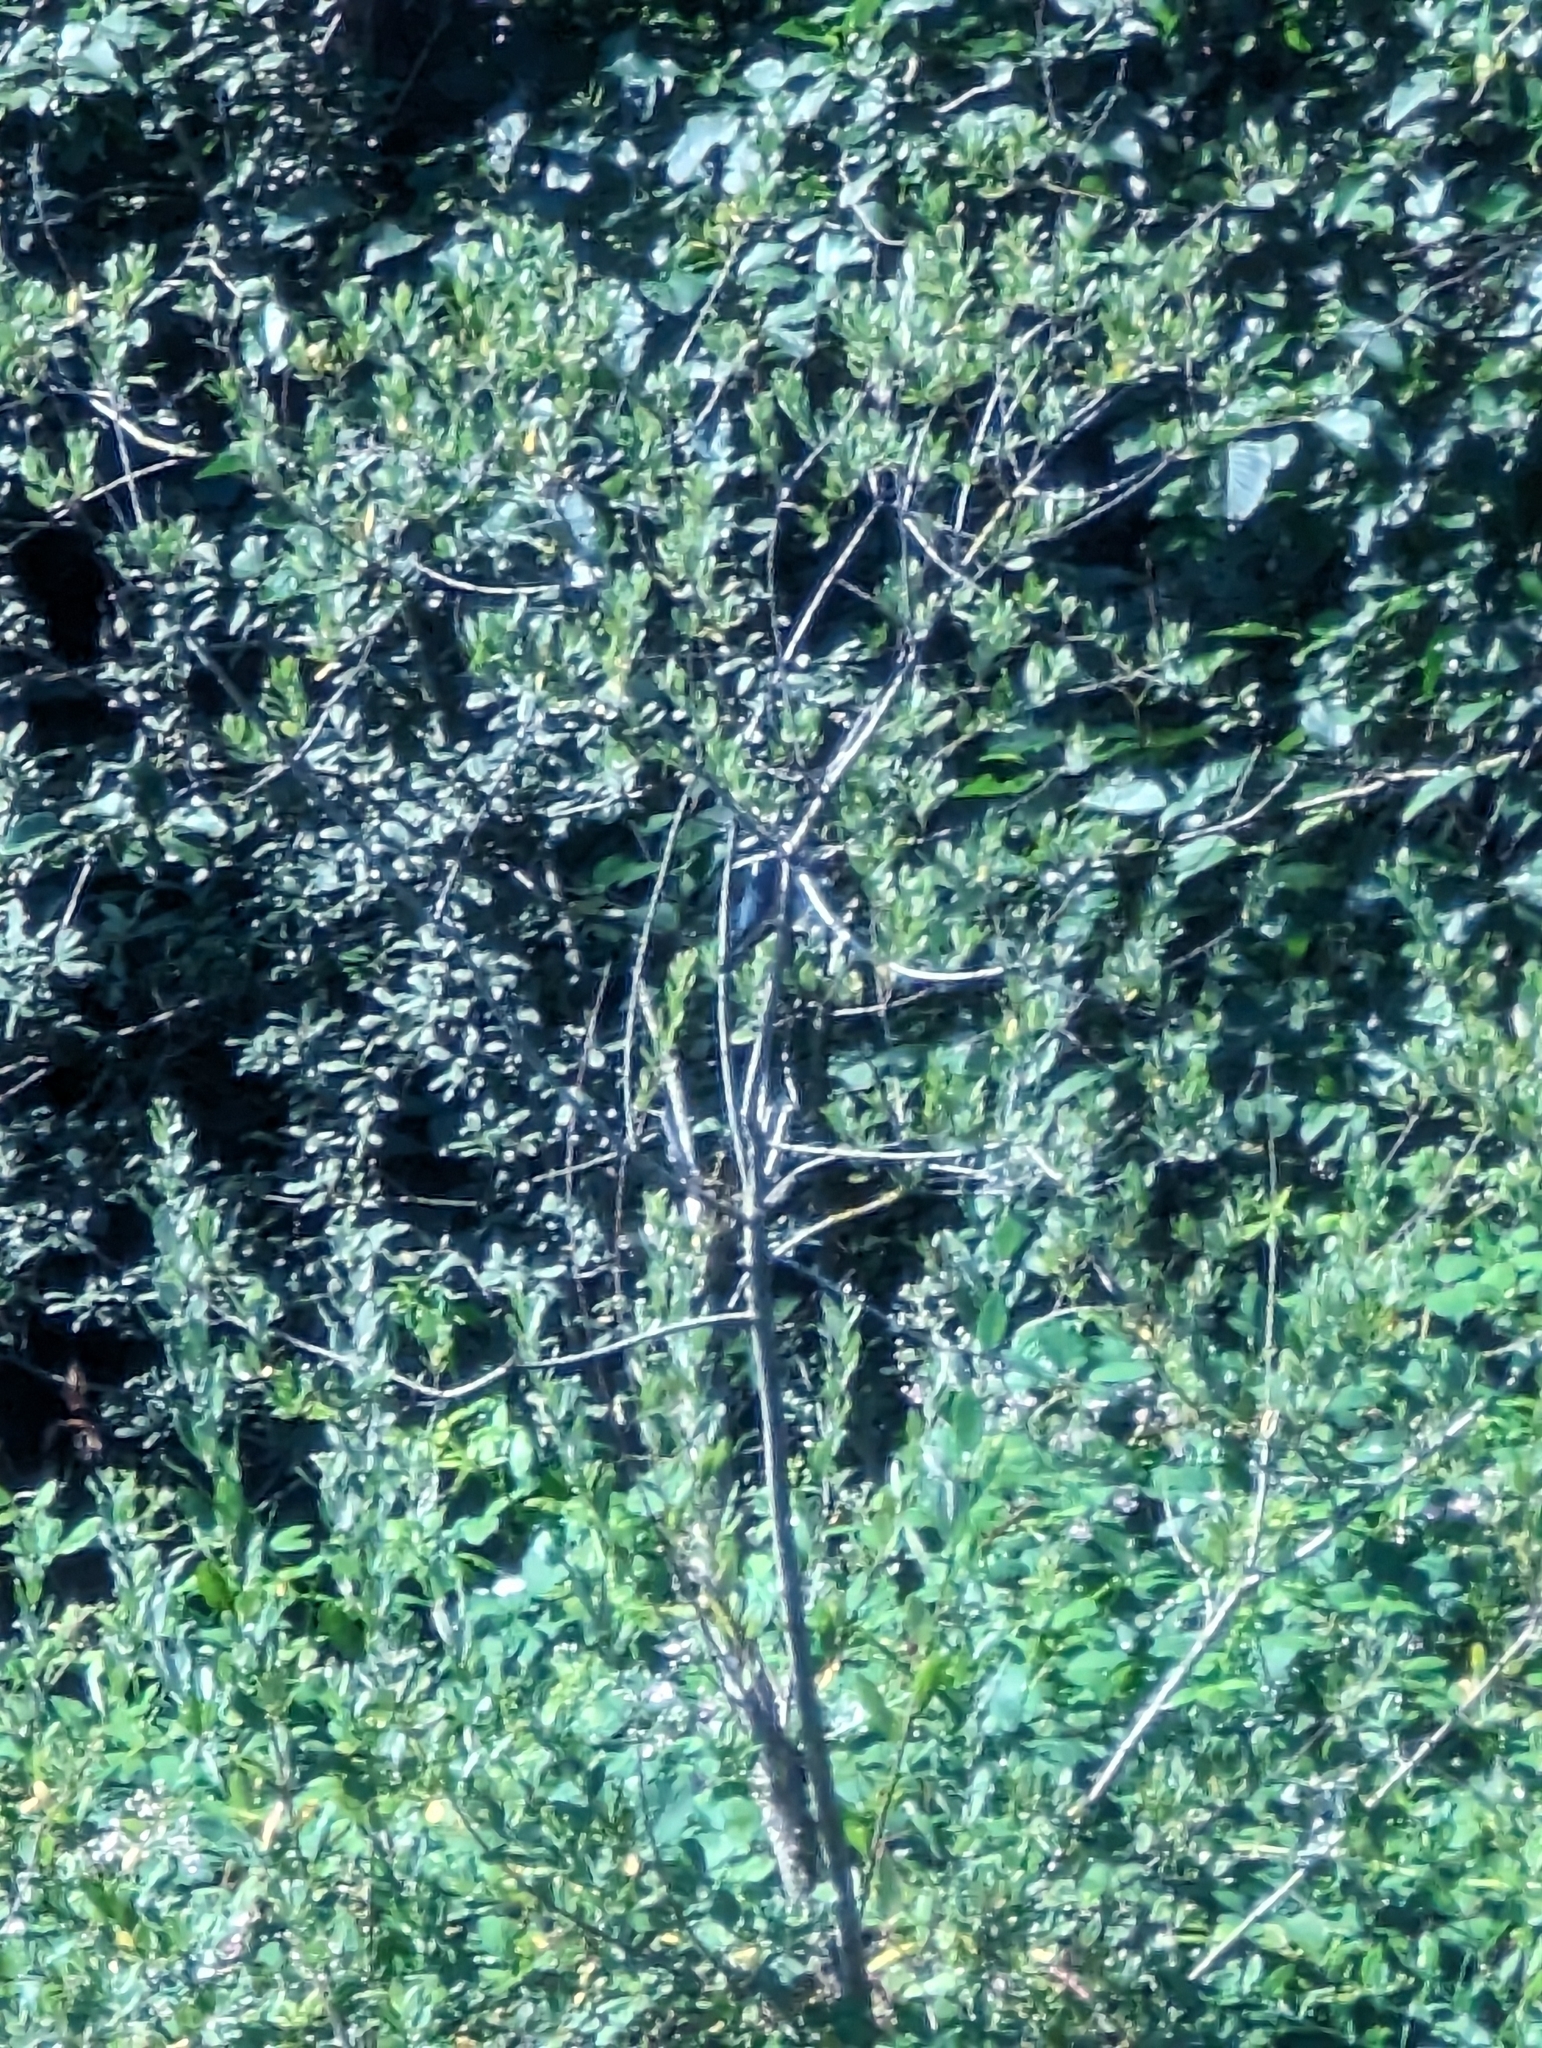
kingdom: Animalia
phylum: Chordata
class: Aves
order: Coraciiformes
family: Alcedinidae
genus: Megaceryle
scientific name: Megaceryle alcyon
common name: Belted kingfisher
